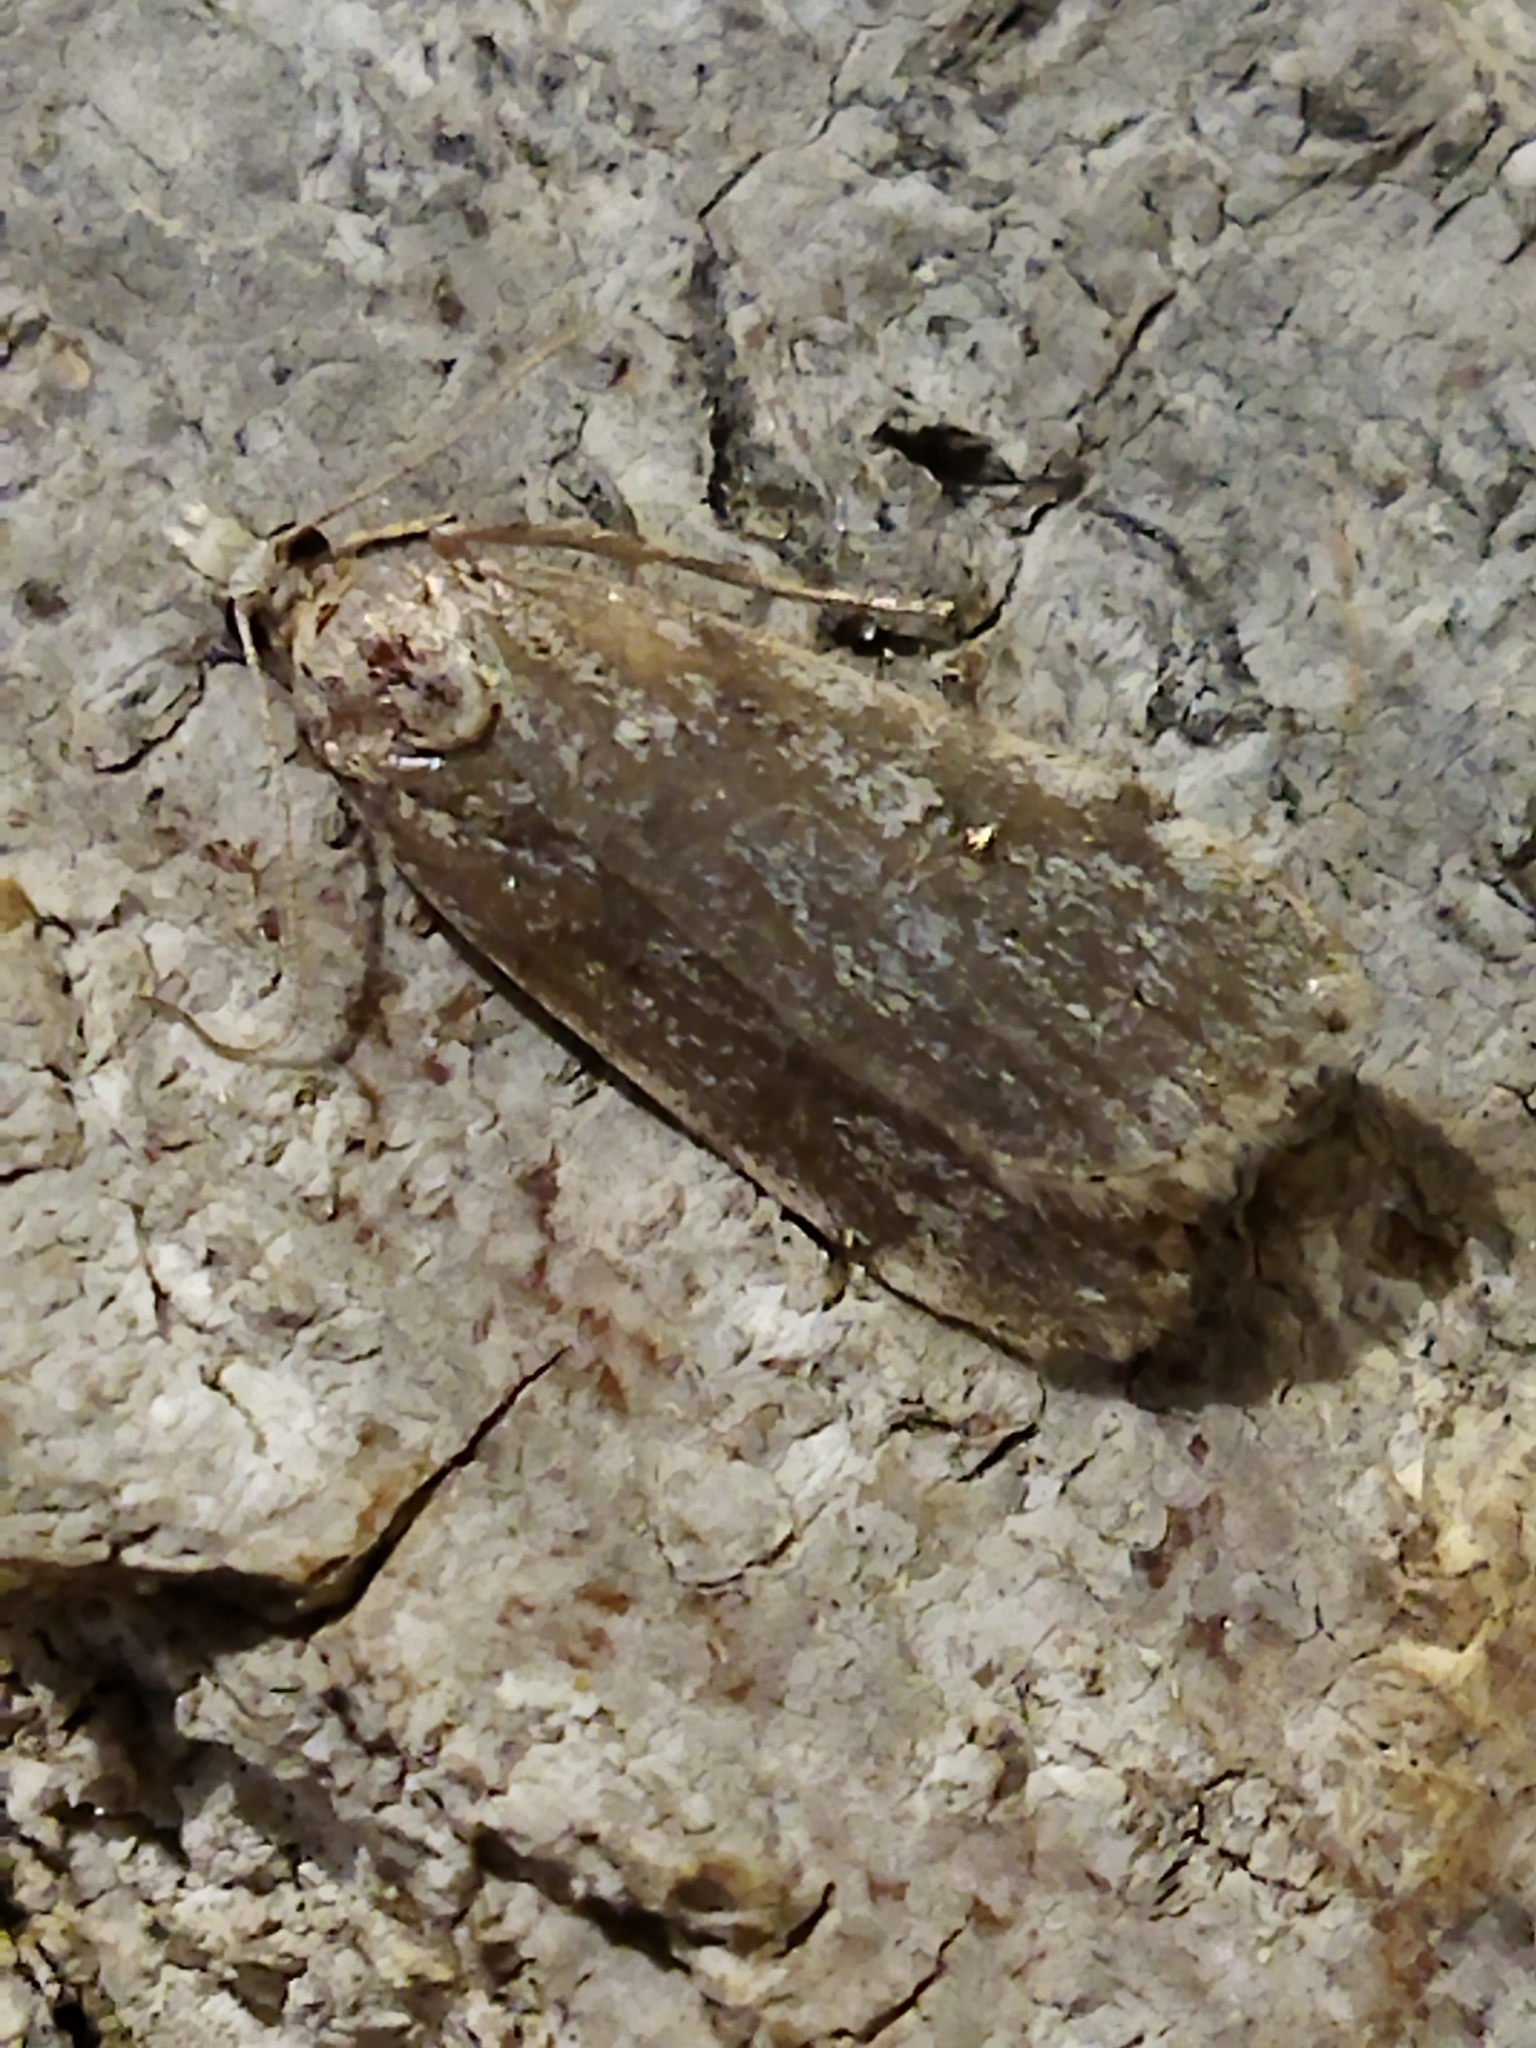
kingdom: Animalia
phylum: Arthropoda
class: Insecta
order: Lepidoptera
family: Crambidae
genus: Scoparia
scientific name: Scoparia
